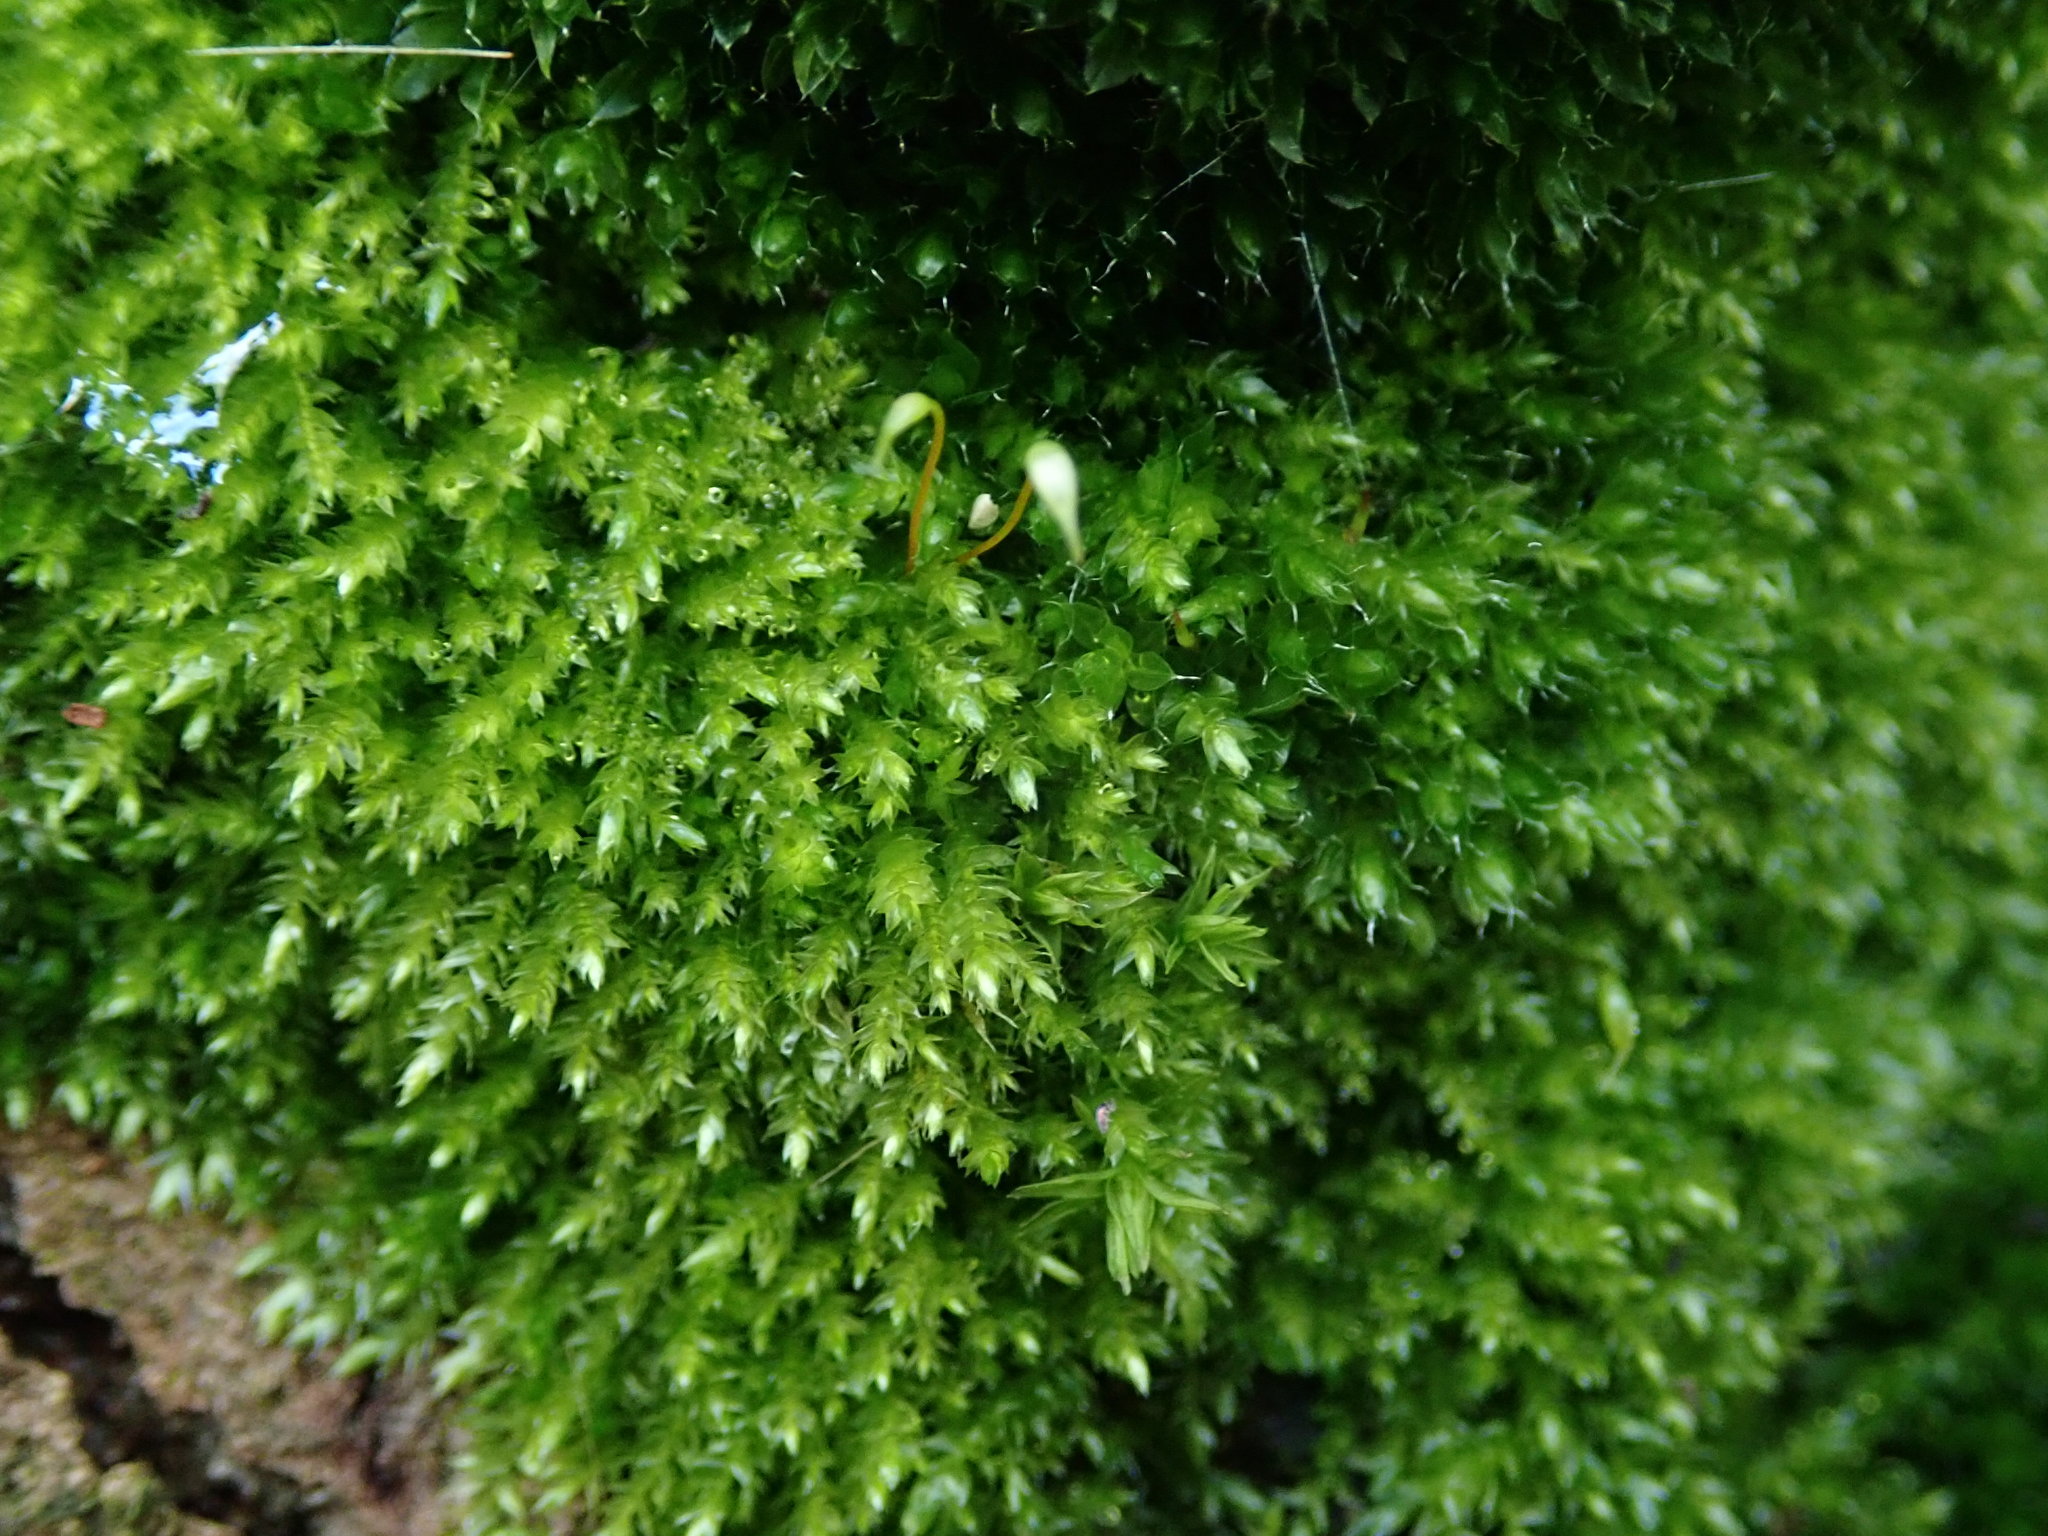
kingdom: Plantae
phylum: Bryophyta
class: Bryopsida
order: Hypnales
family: Brachytheciaceae
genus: Rhynchostegium
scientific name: Rhynchostegium confertum
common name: Clustered feather-moss
